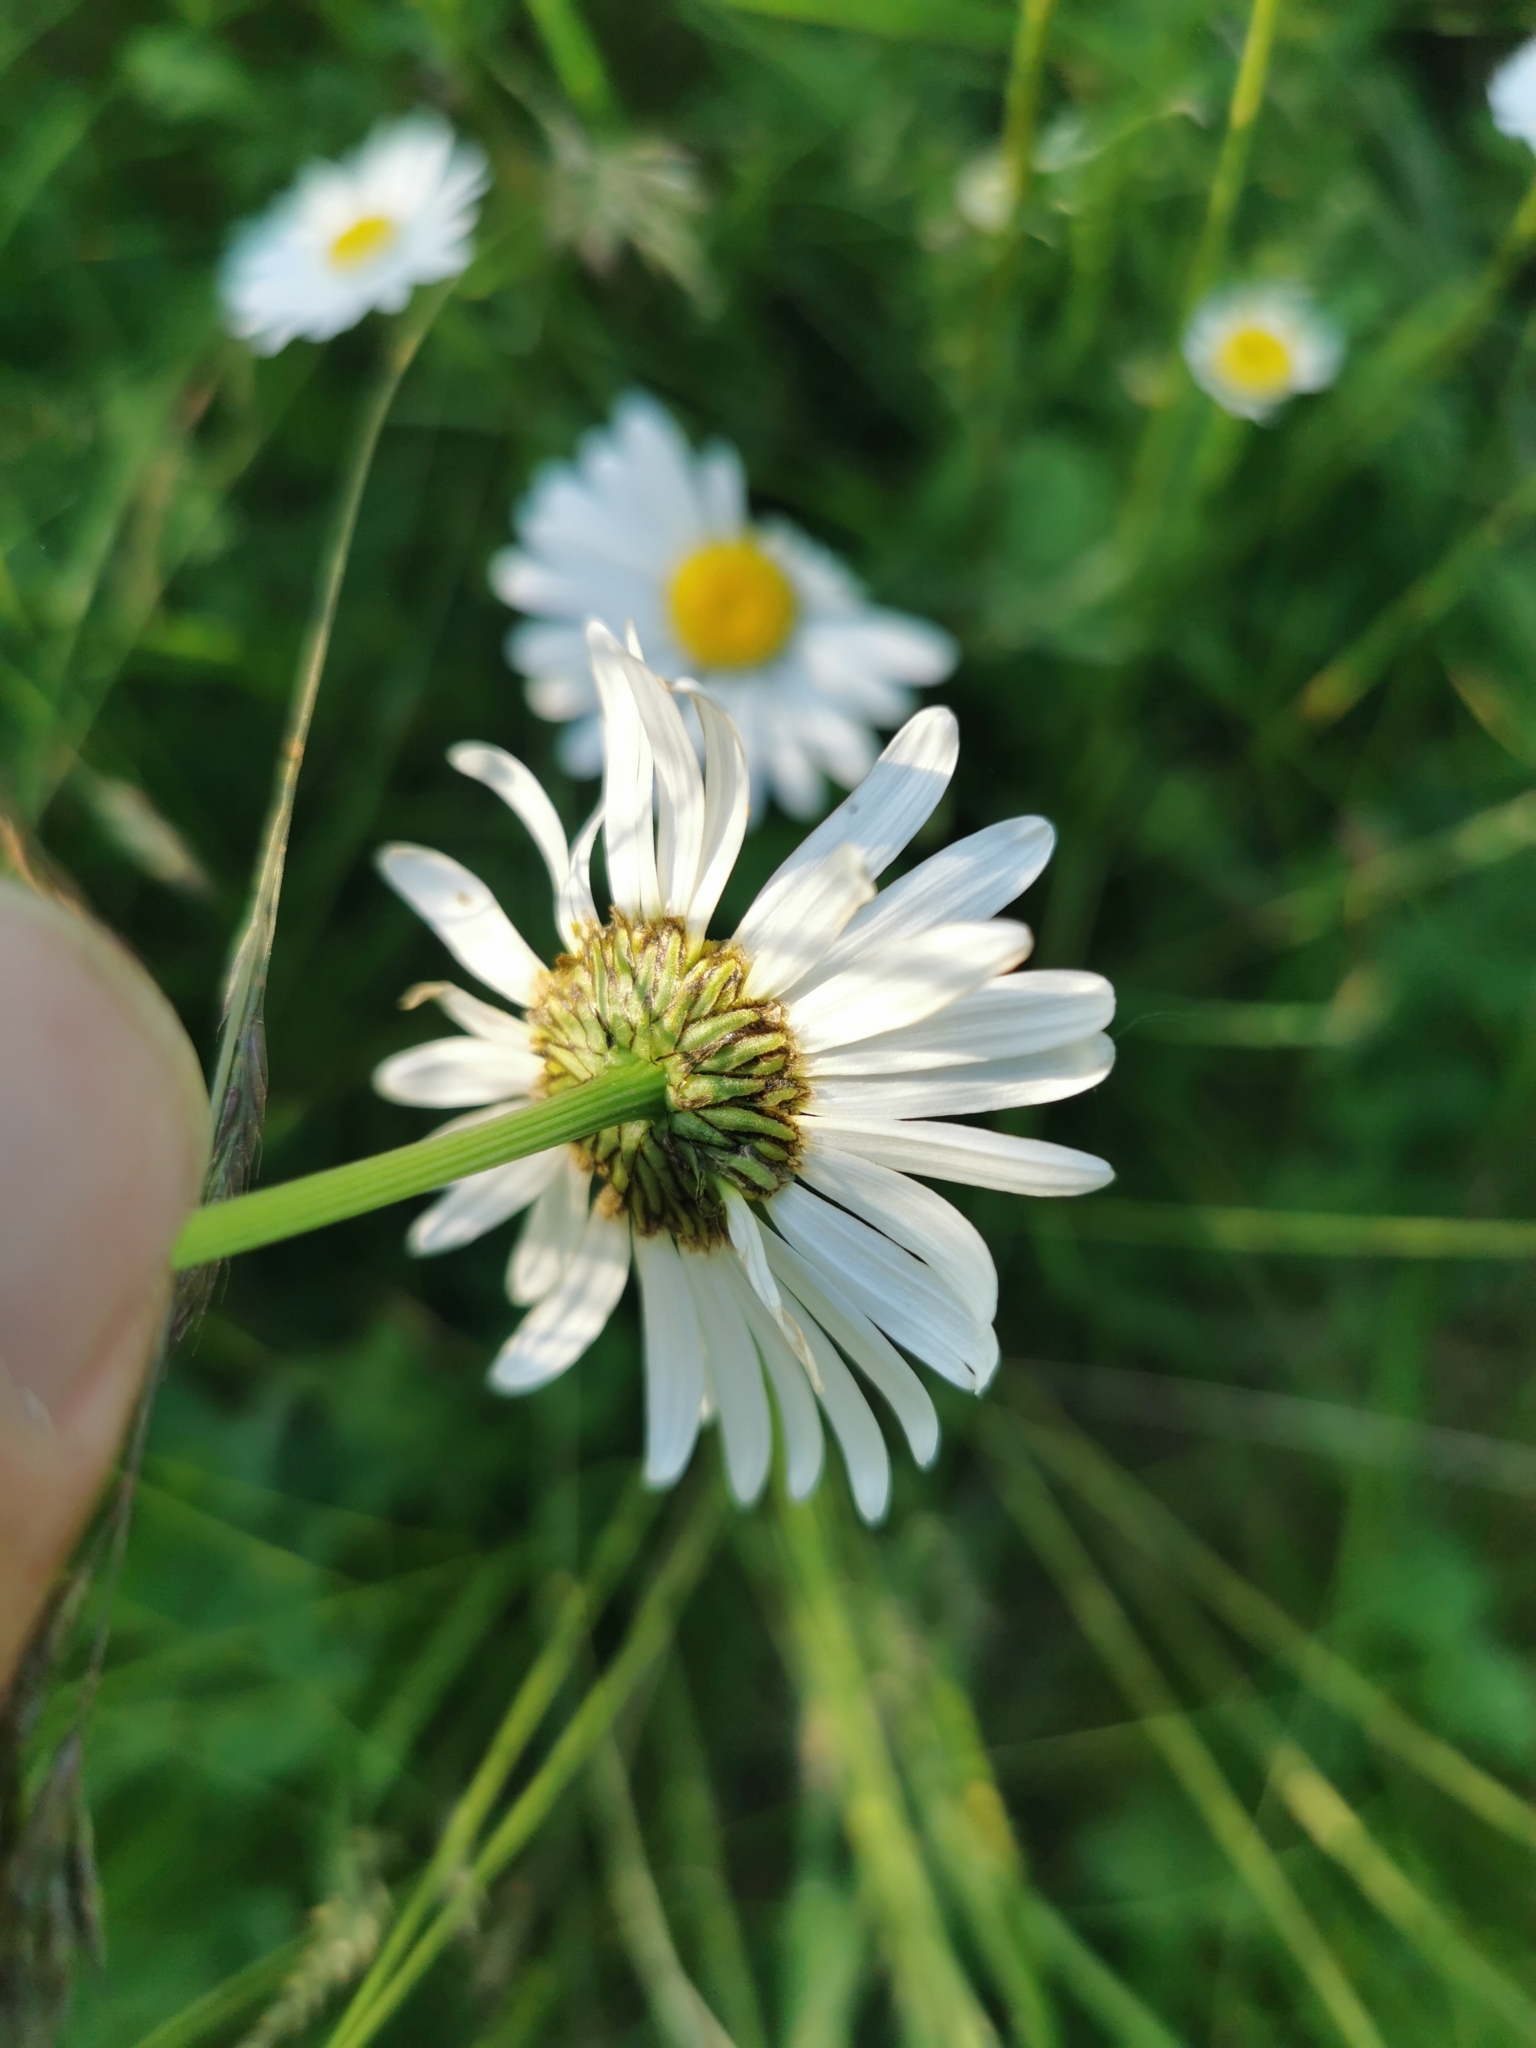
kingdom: Plantae
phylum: Tracheophyta
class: Magnoliopsida
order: Asterales
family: Asteraceae
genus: Leucanthemum
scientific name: Leucanthemum vulgare
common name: Oxeye daisy
